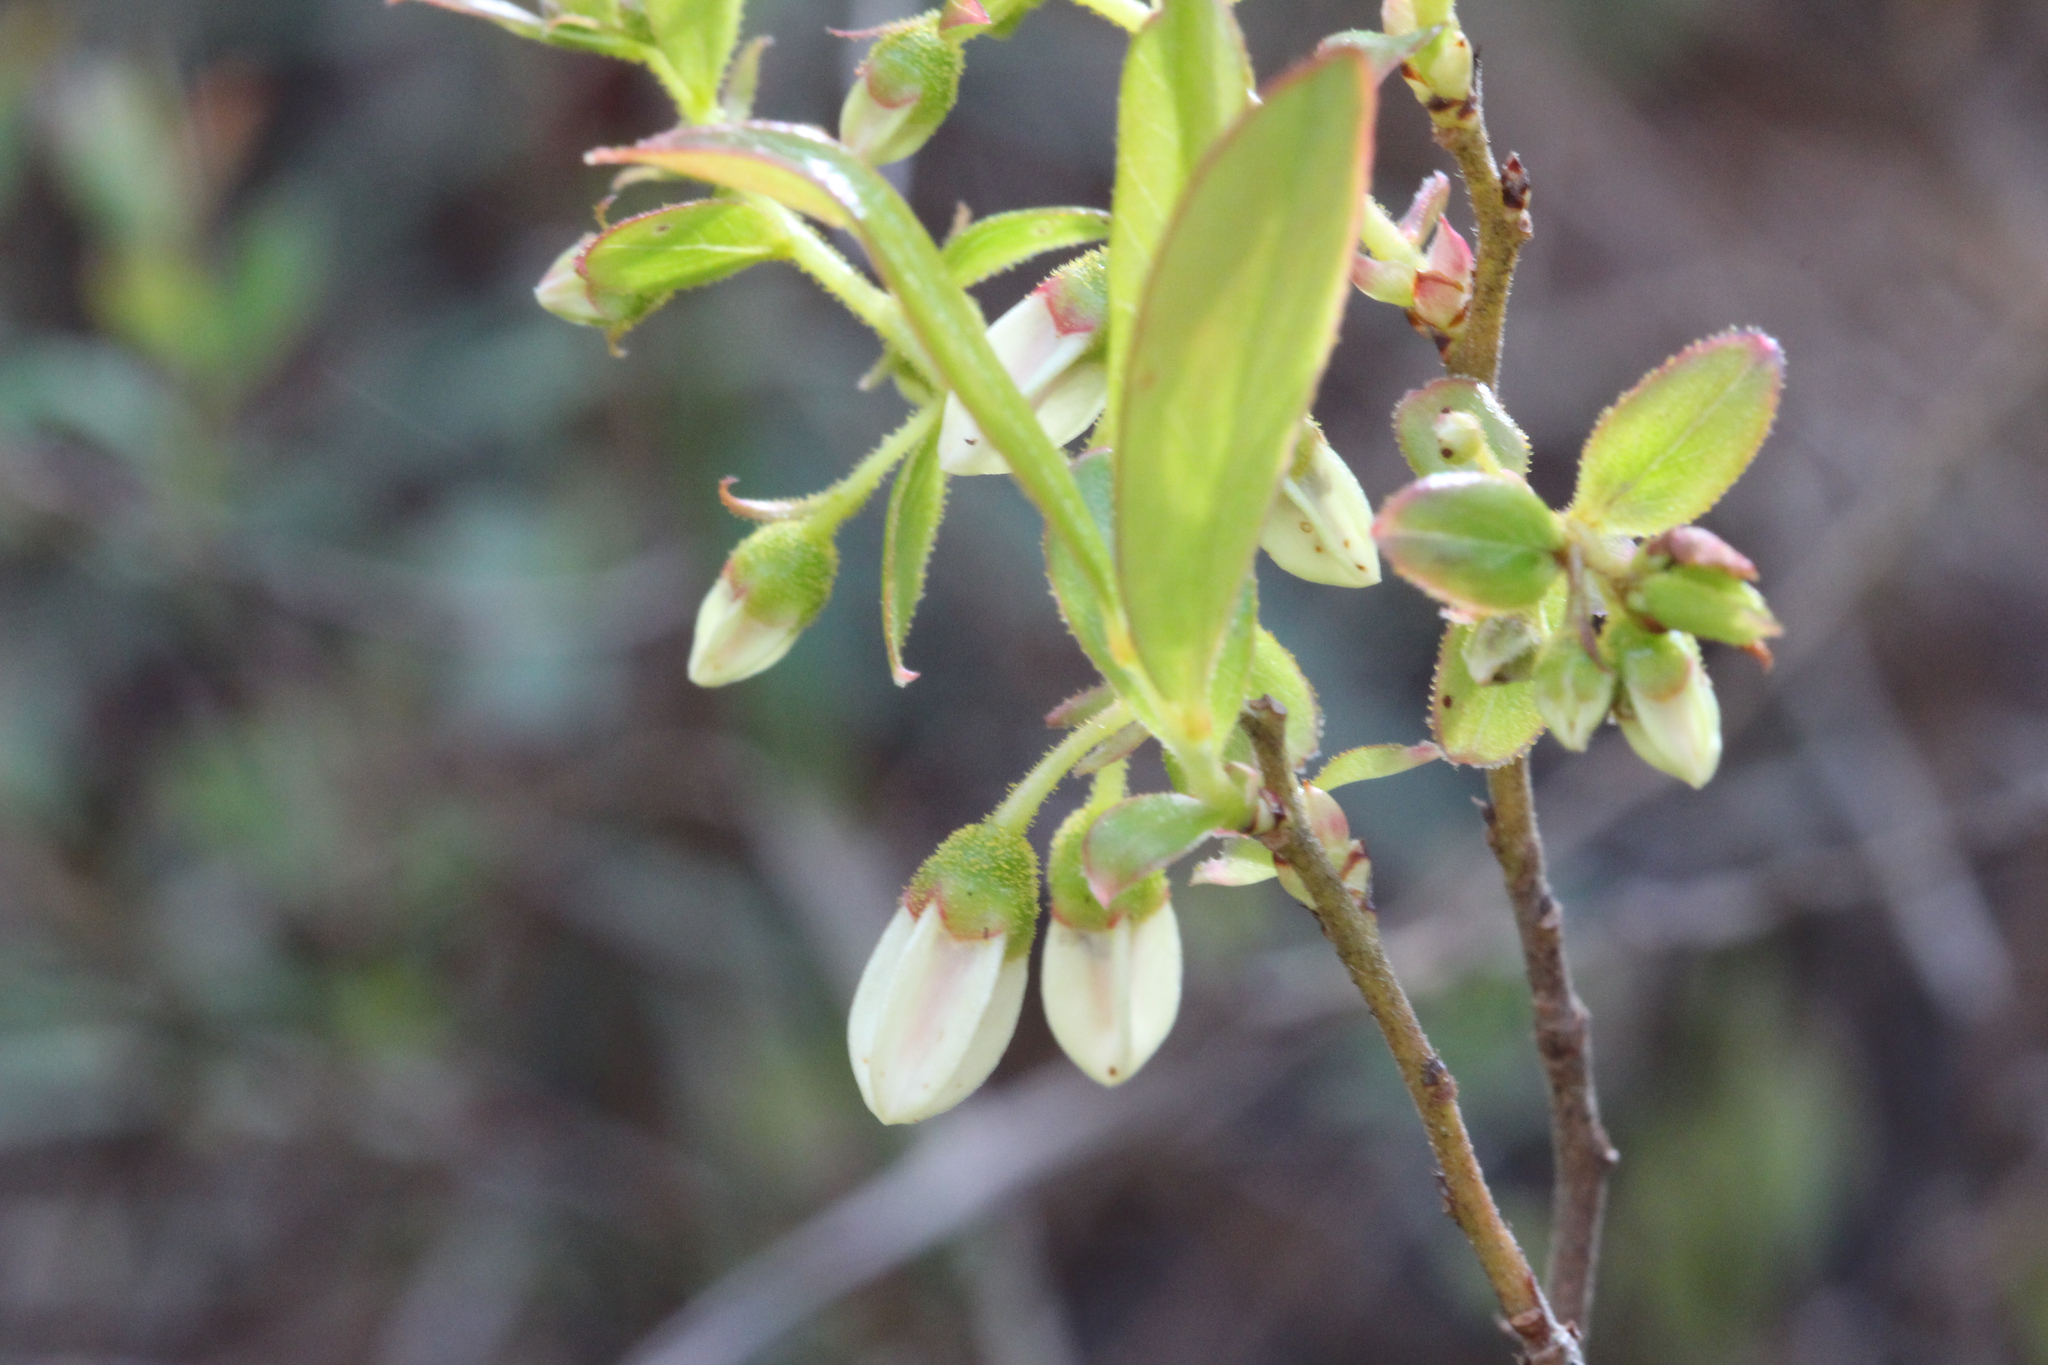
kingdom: Plantae
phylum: Tracheophyta
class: Magnoliopsida
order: Ericales
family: Ericaceae
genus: Gaylussacia
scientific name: Gaylussacia dumosa
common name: Dwarf huckleberry
